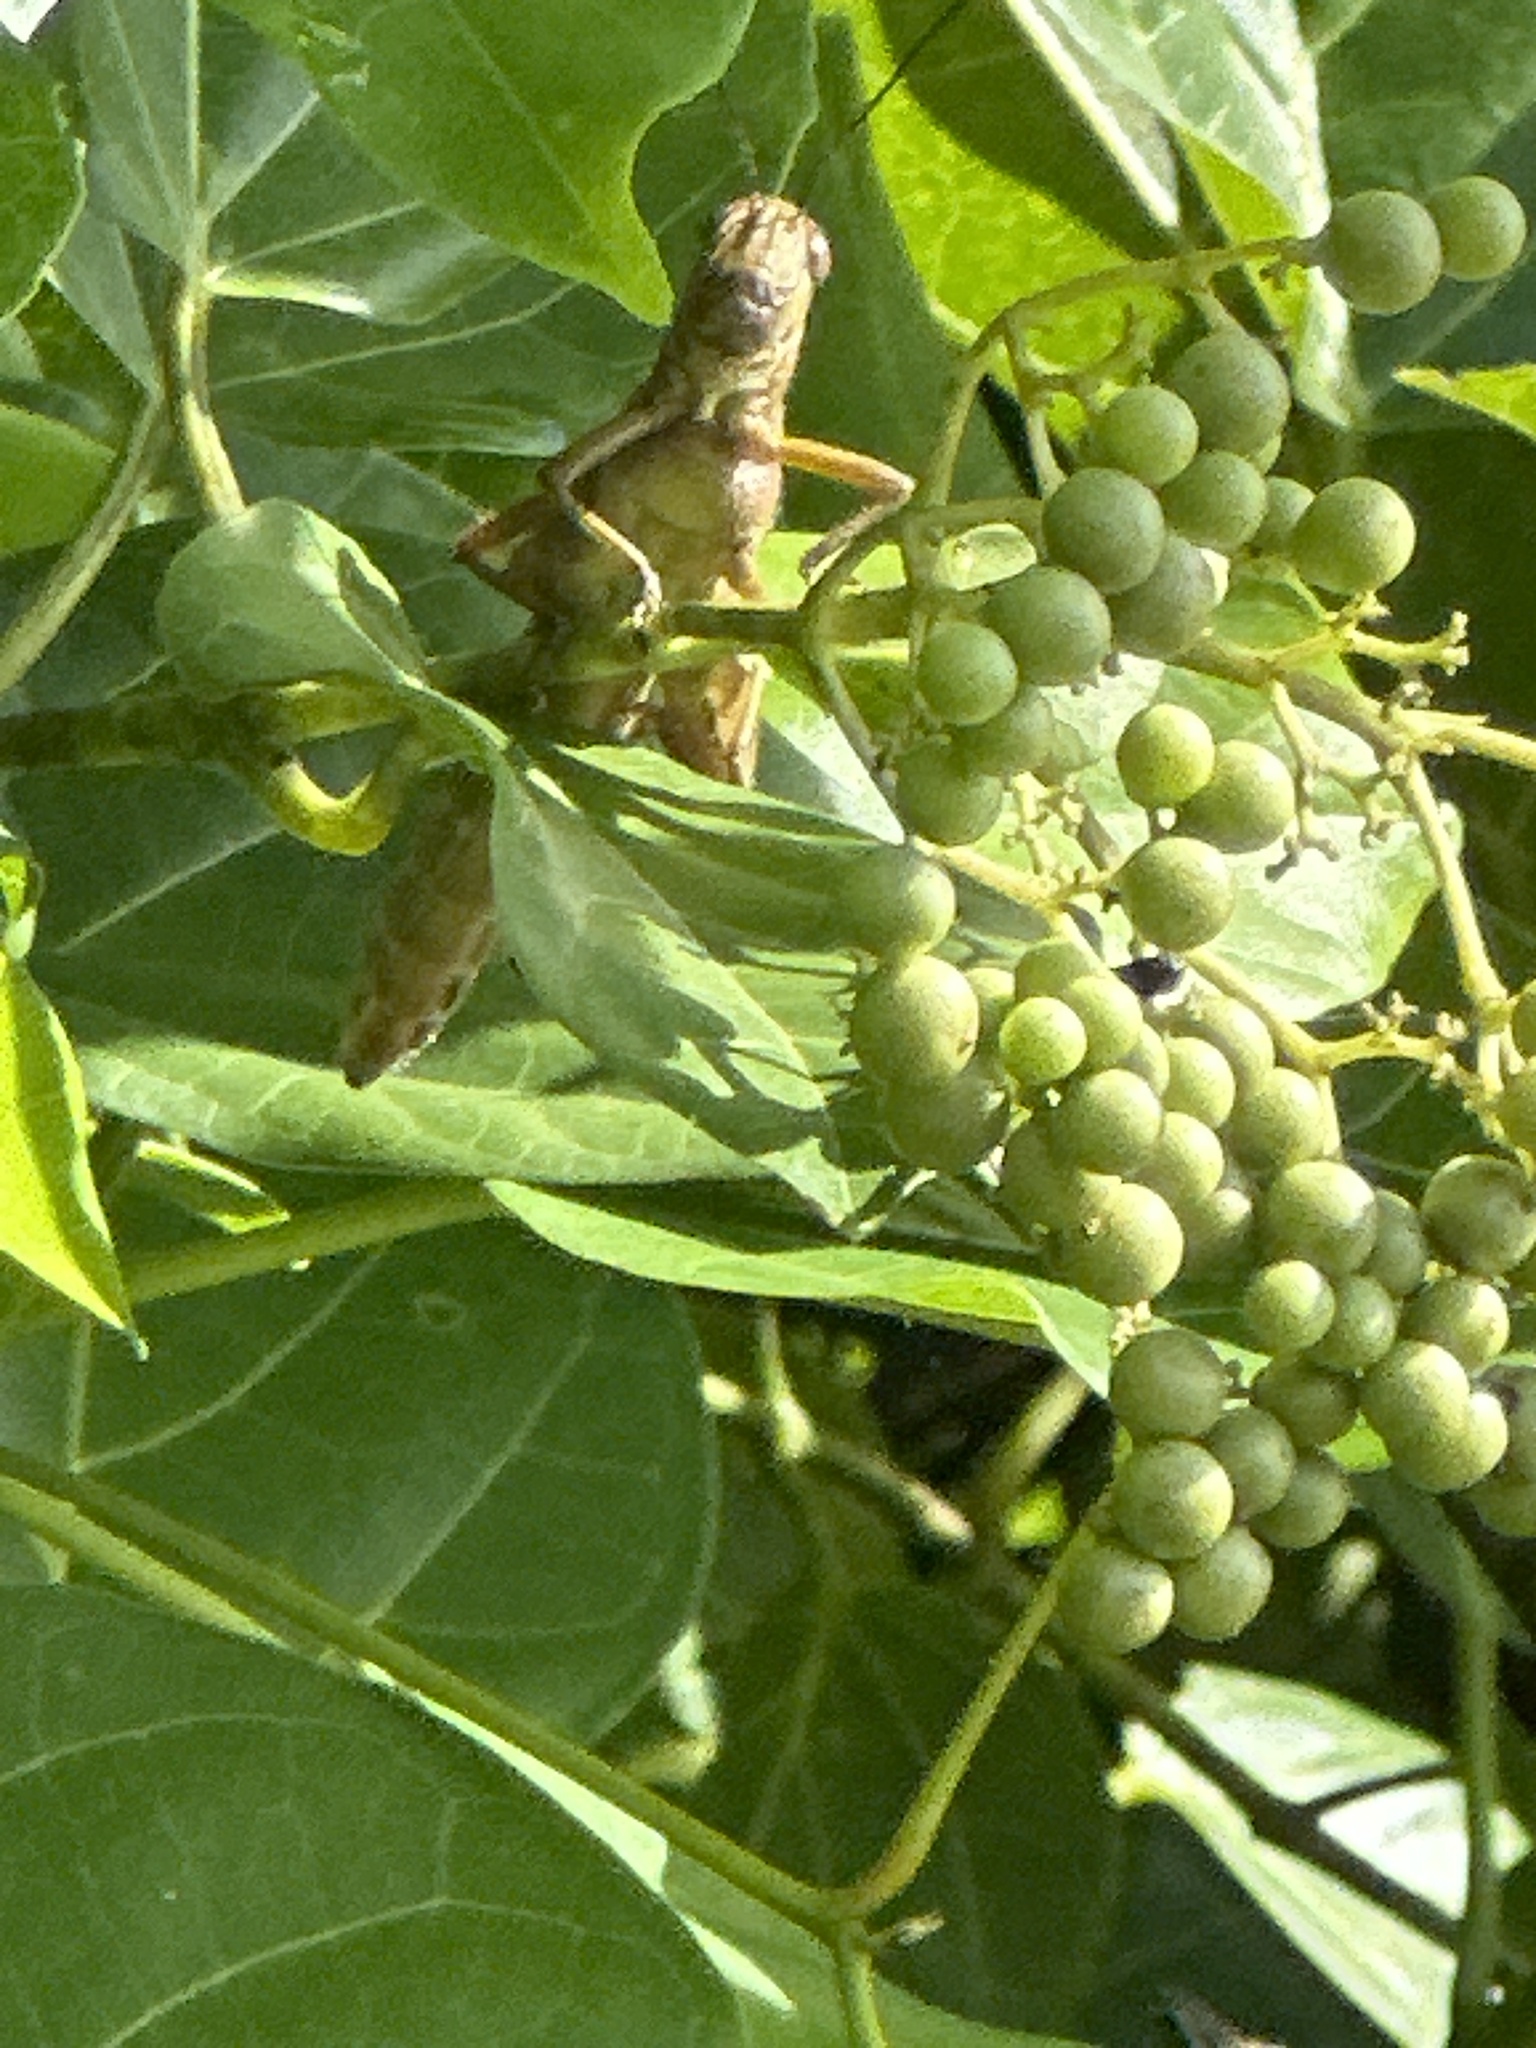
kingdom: Animalia
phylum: Arthropoda
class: Insecta
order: Orthoptera
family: Acrididae
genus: Valanga
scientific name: Valanga nigricornis
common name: Javanese bird grasshopper
